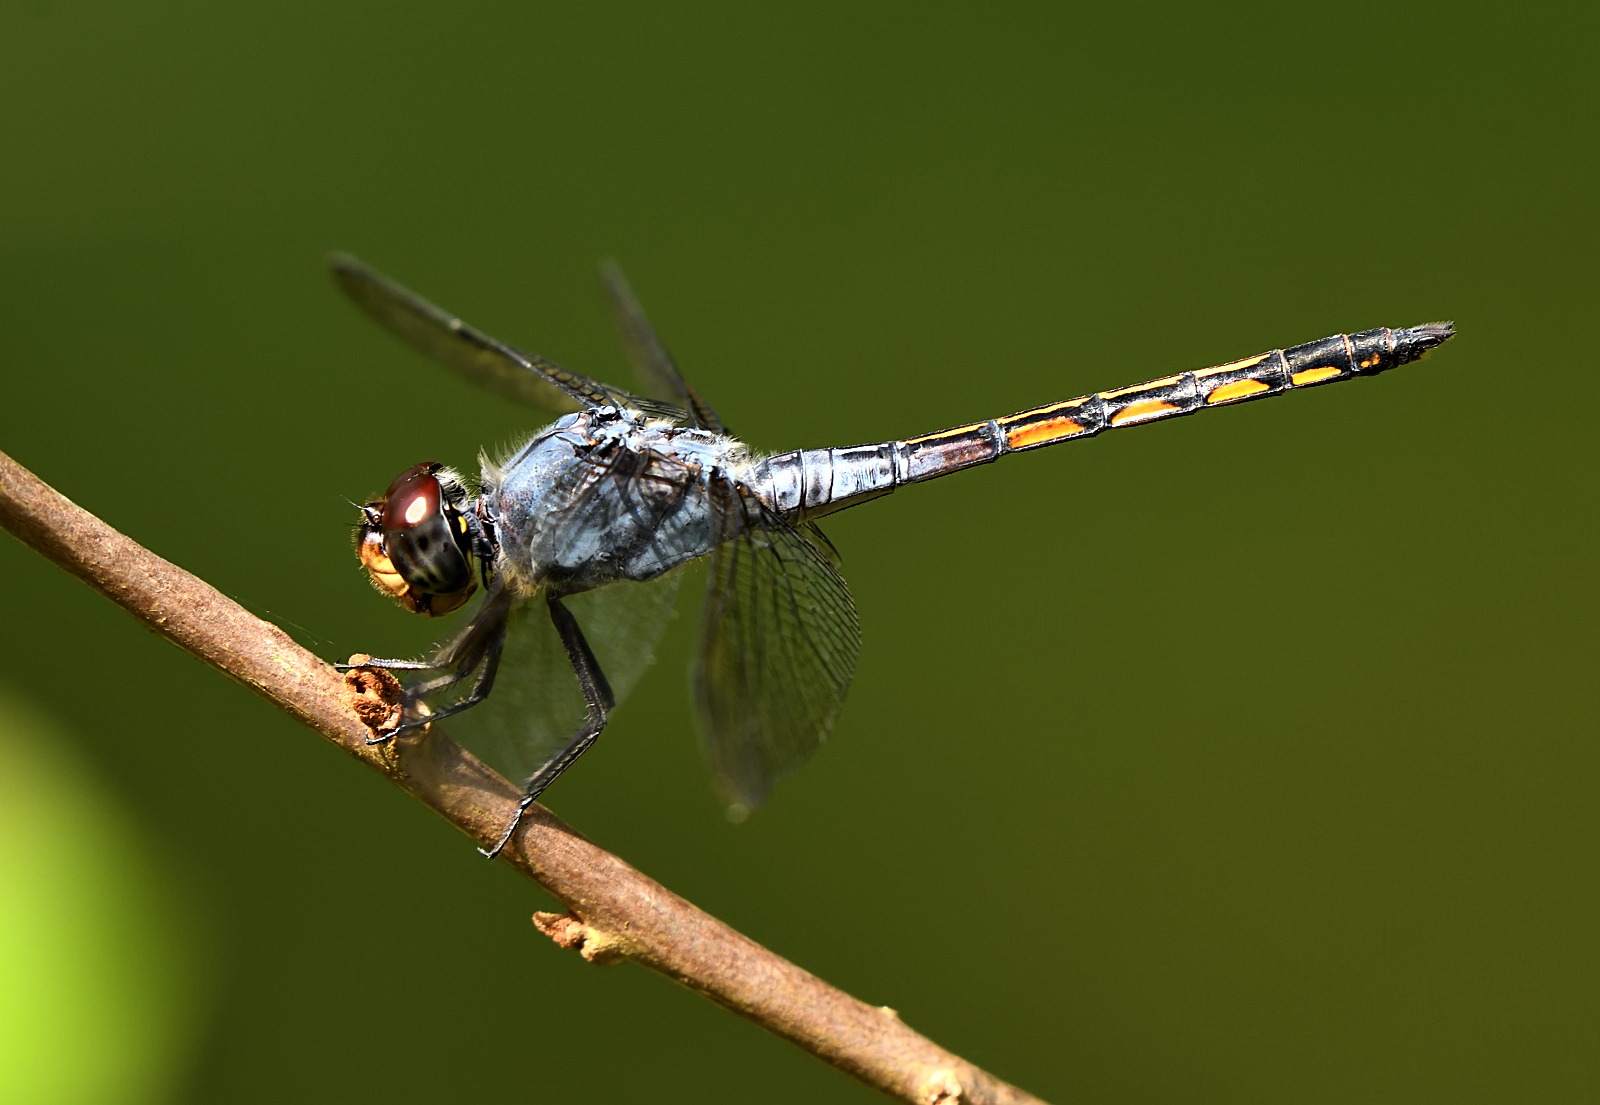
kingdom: Animalia
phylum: Arthropoda
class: Insecta
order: Odonata
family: Libellulidae
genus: Potamarcha
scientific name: Potamarcha congener
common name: Blue chaser
